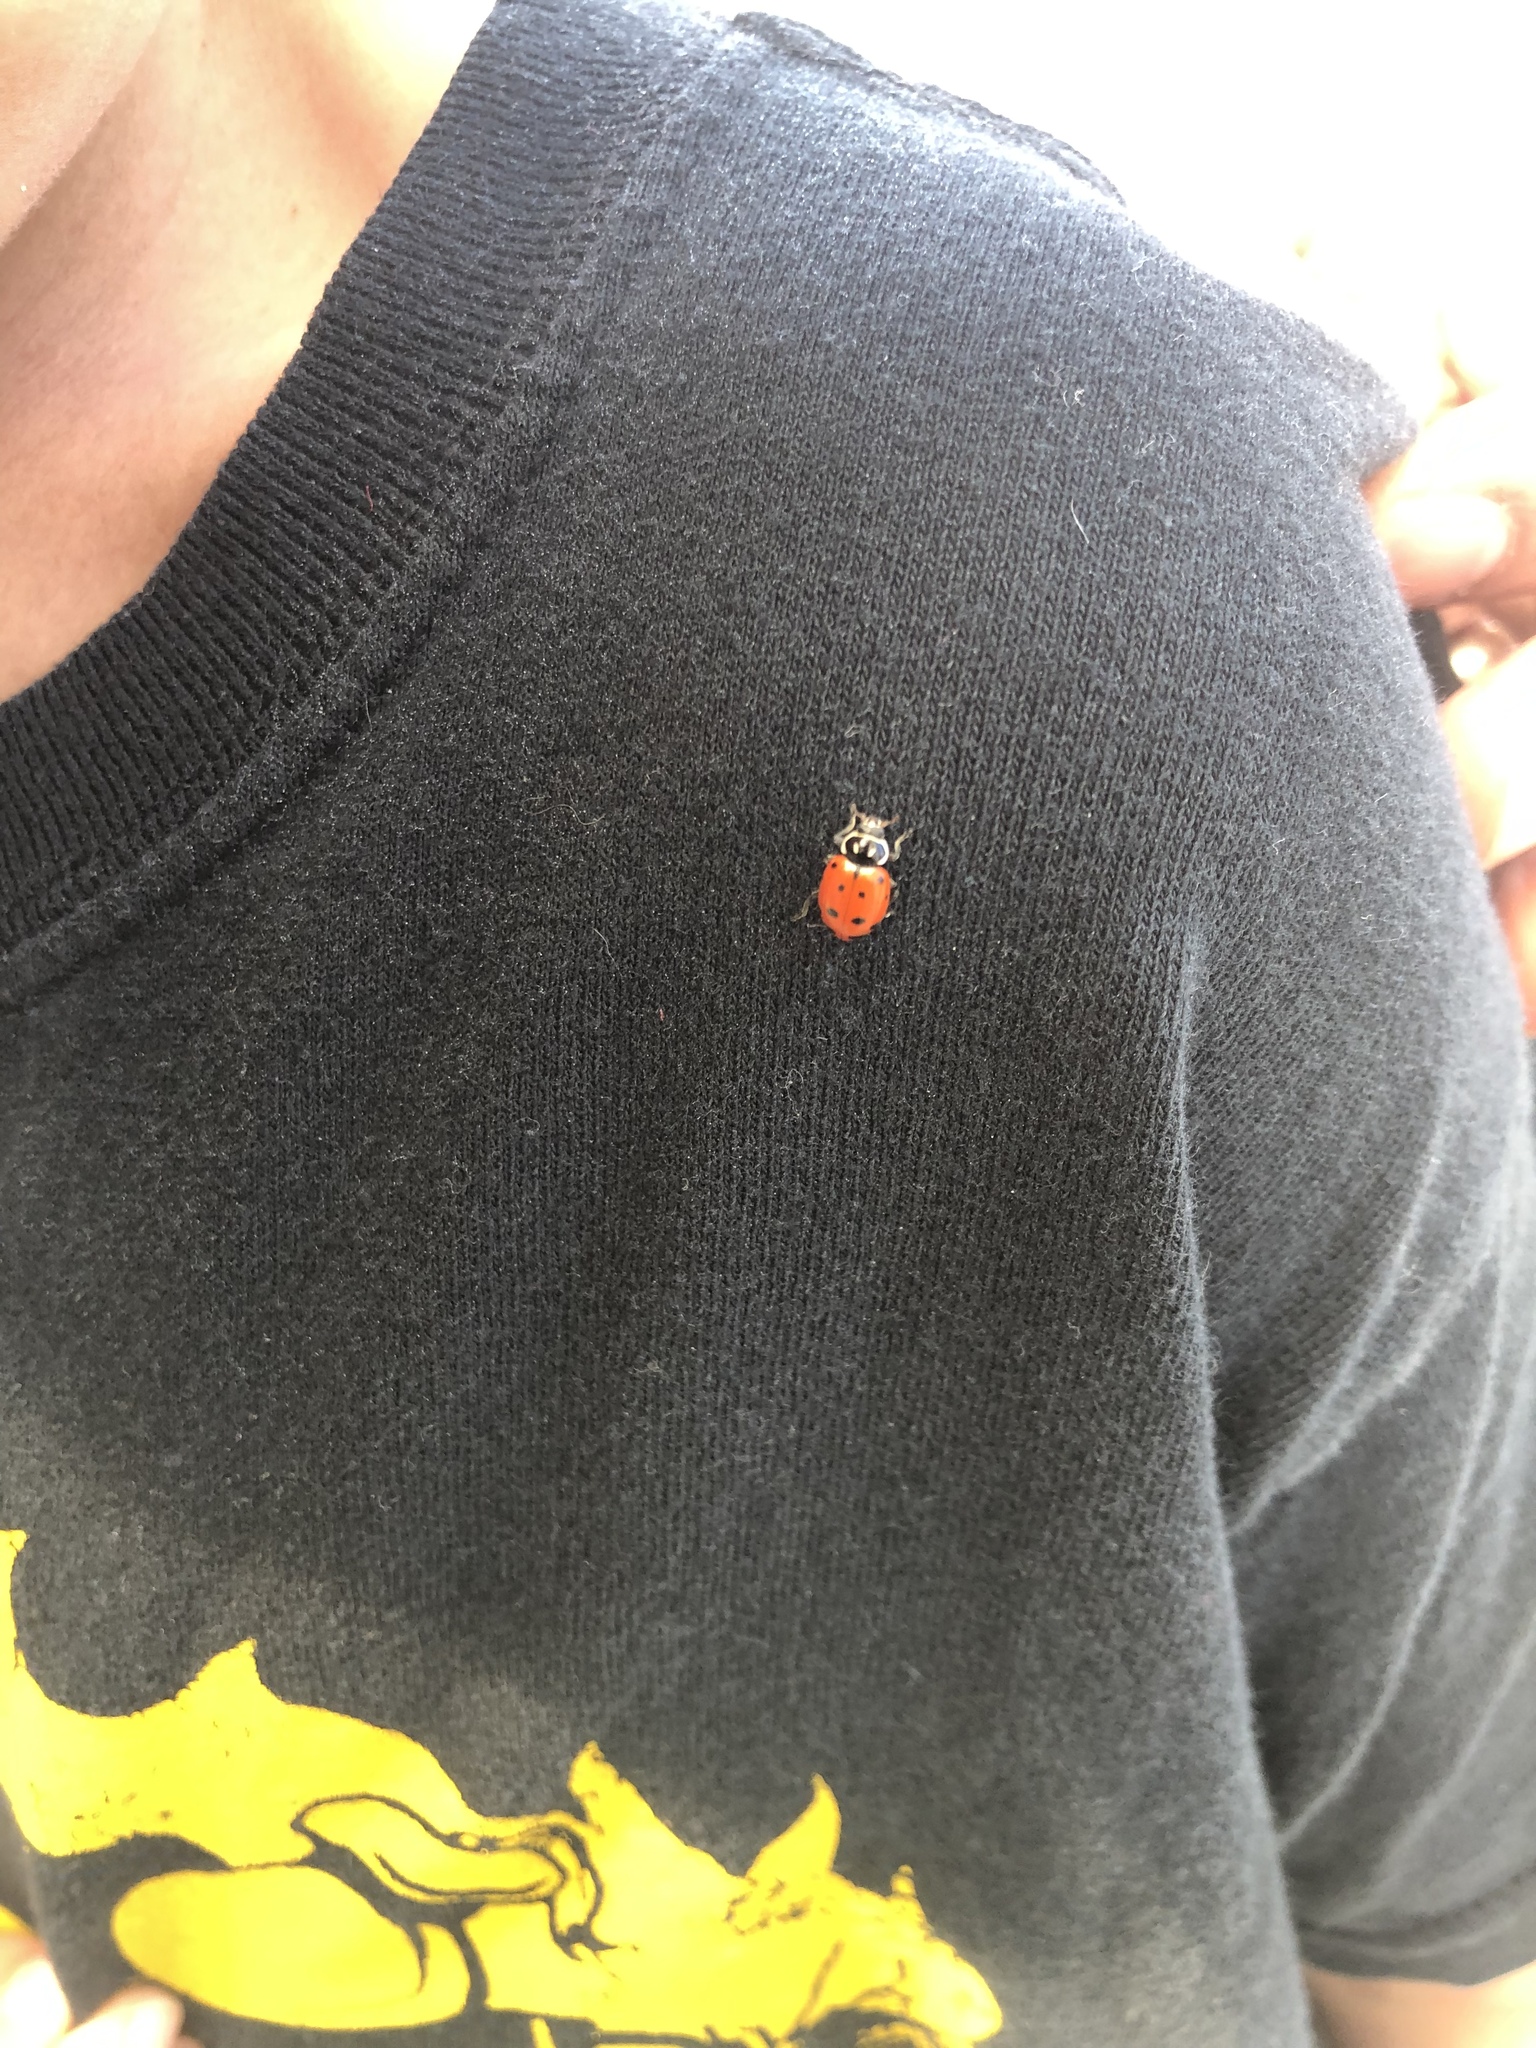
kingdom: Animalia
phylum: Arthropoda
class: Insecta
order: Coleoptera
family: Coccinellidae
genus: Hippodamia
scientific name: Hippodamia convergens
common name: Convergent lady beetle
